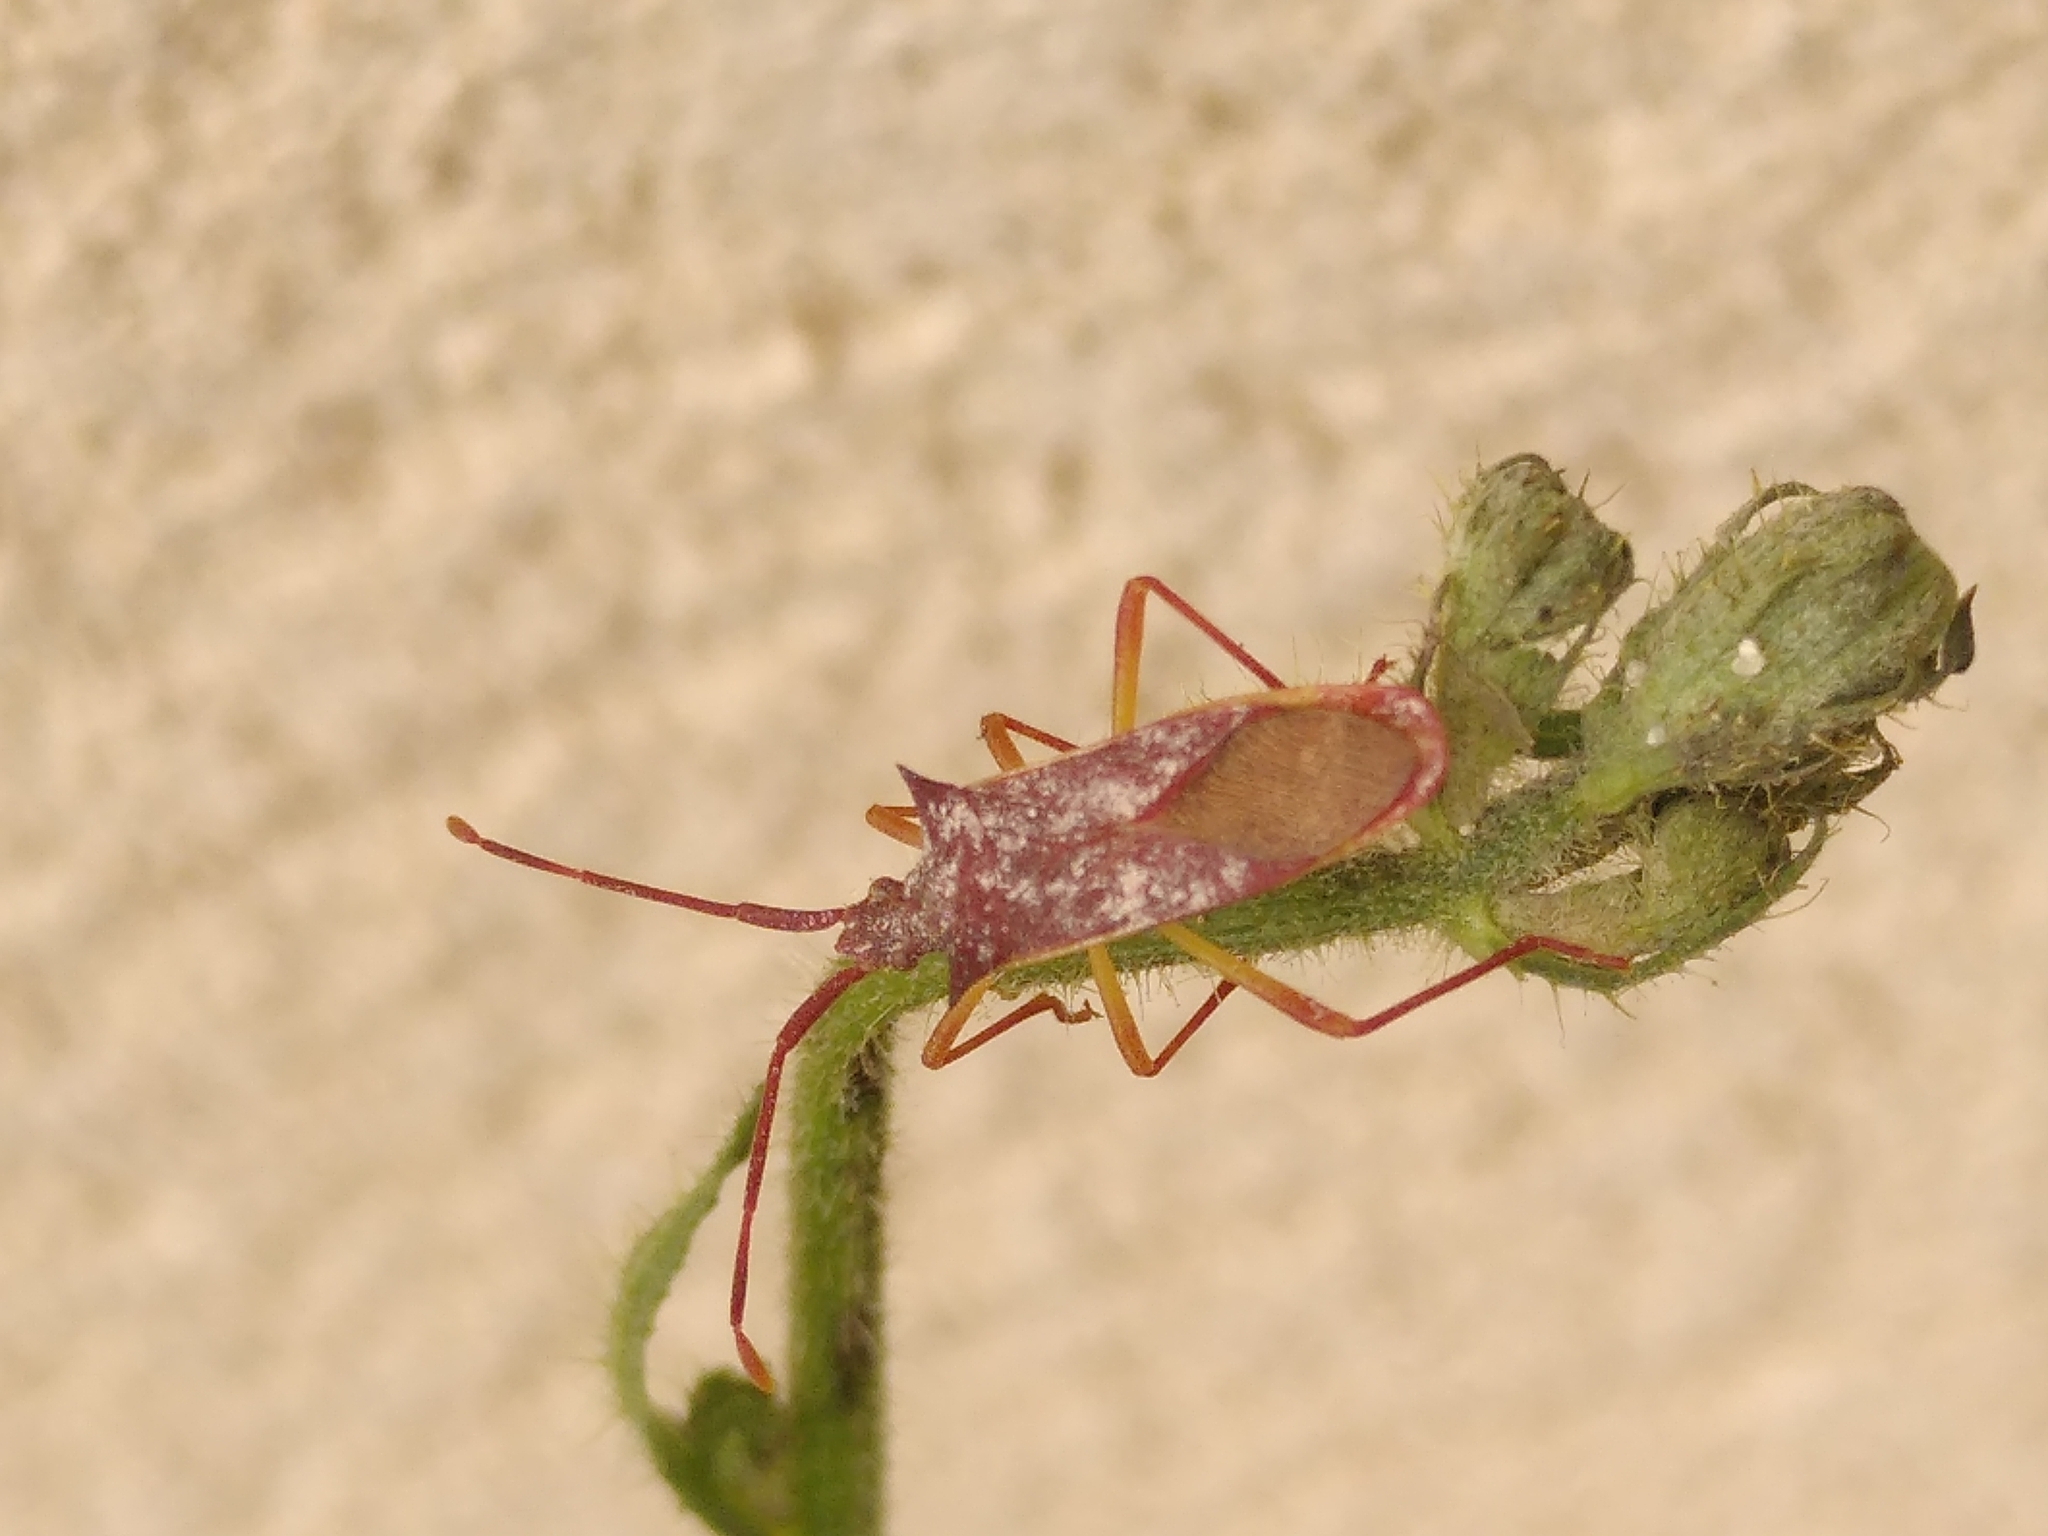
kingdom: Animalia
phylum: Arthropoda
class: Insecta
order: Hemiptera
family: Coreidae
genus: Gonocerus
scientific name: Gonocerus insidiator
